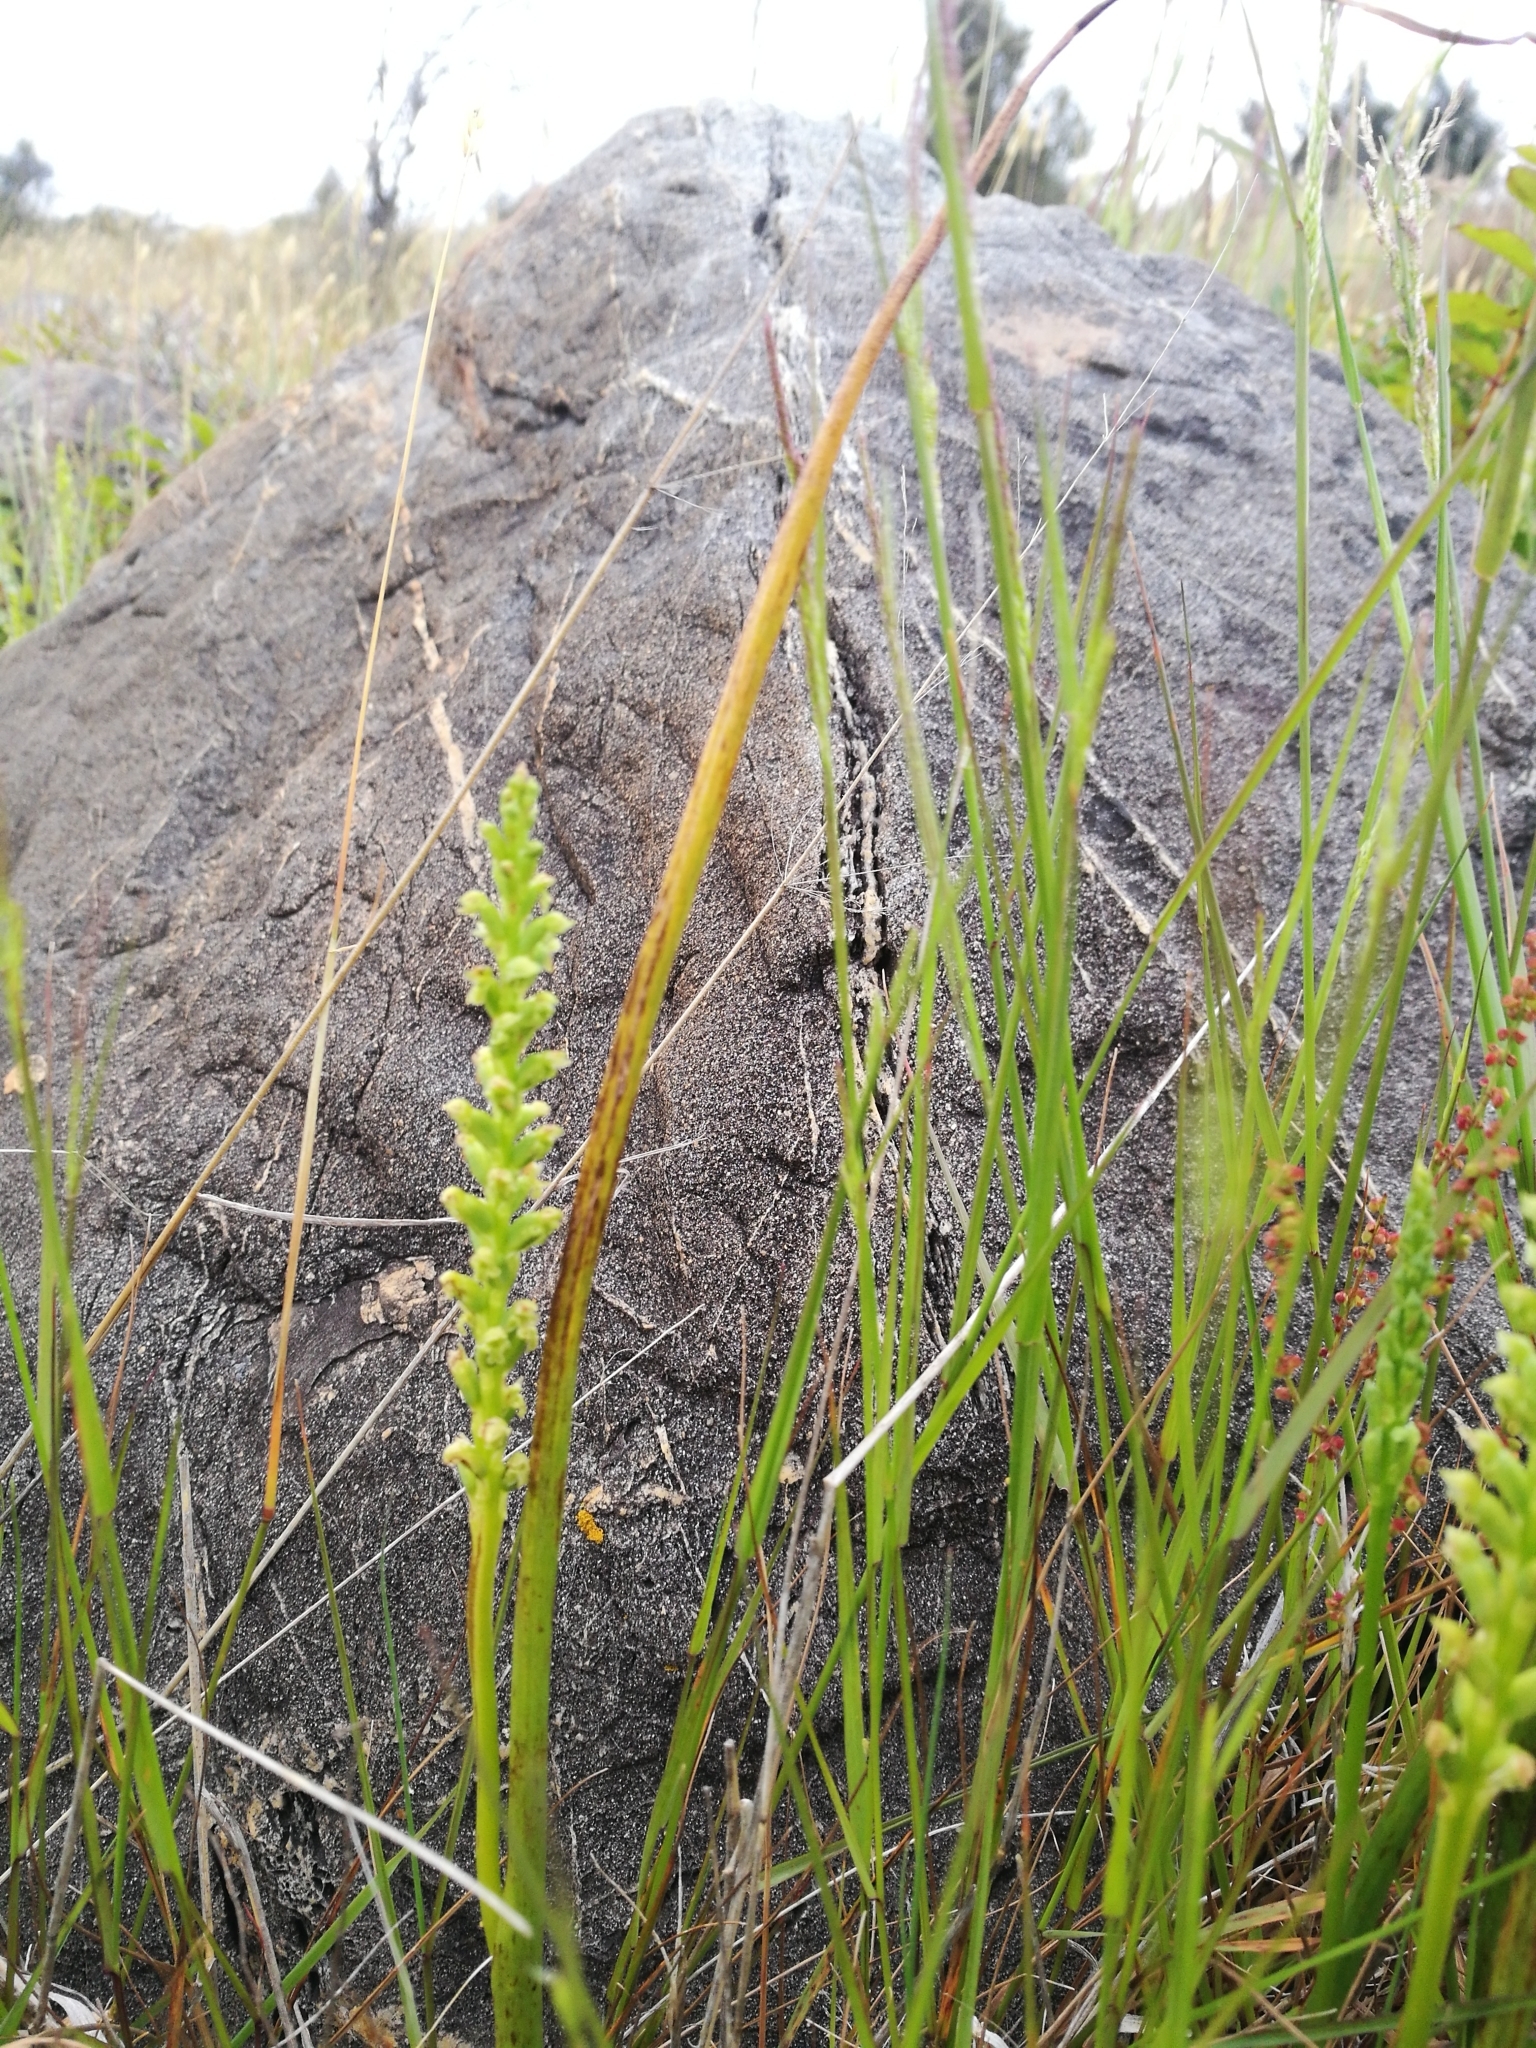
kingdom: Plantae
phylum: Tracheophyta
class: Liliopsida
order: Asparagales
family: Orchidaceae
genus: Microtis
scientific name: Microtis unifolia
